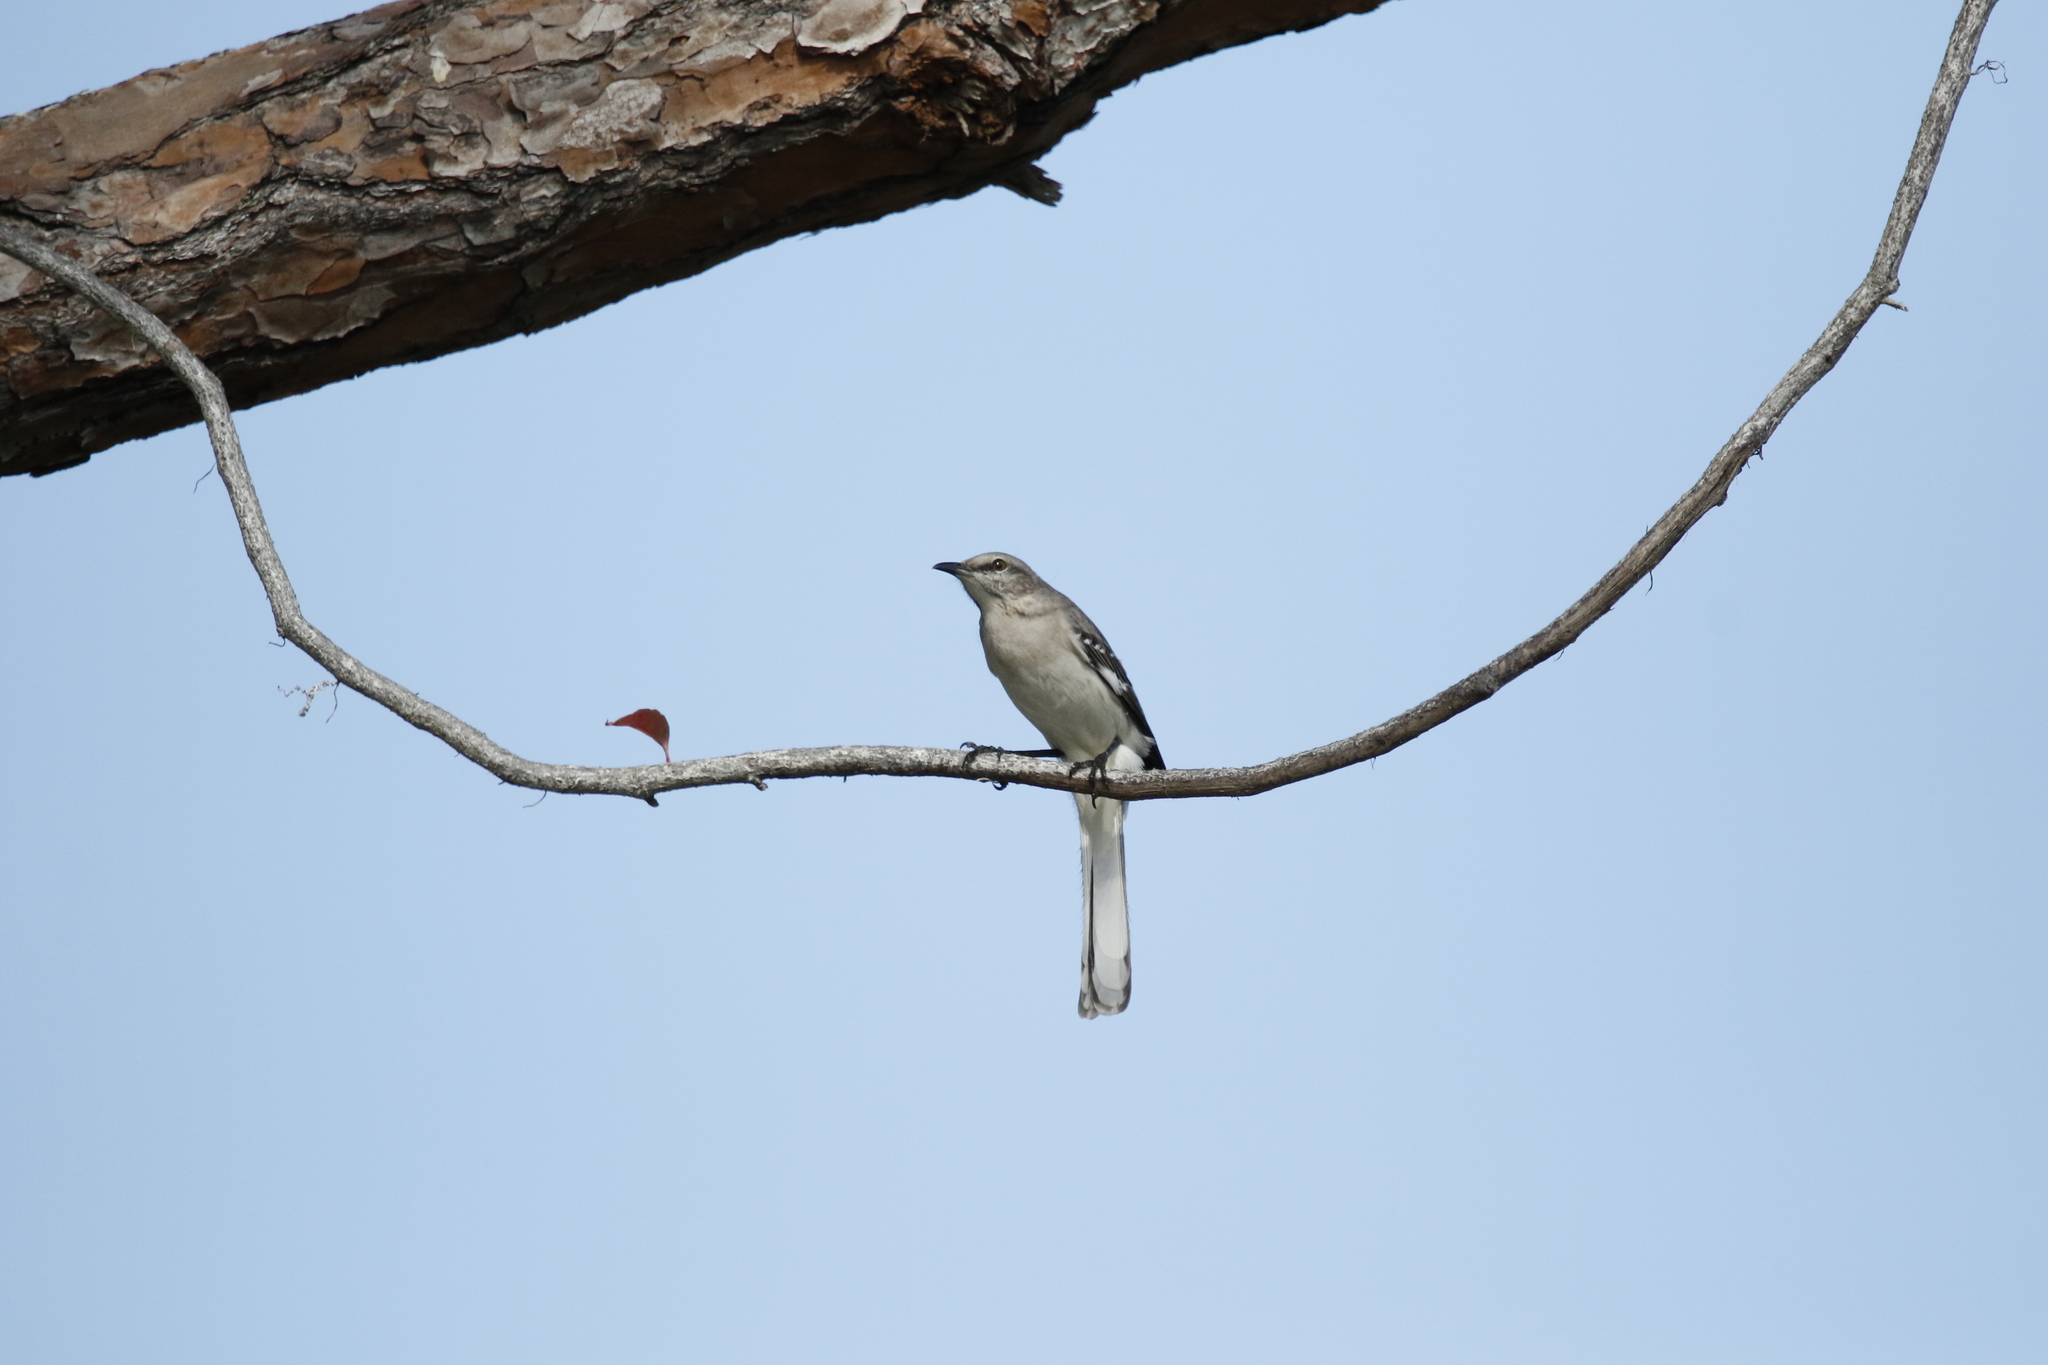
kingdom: Animalia
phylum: Chordata
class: Aves
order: Passeriformes
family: Mimidae
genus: Mimus
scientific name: Mimus polyglottos
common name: Northern mockingbird
